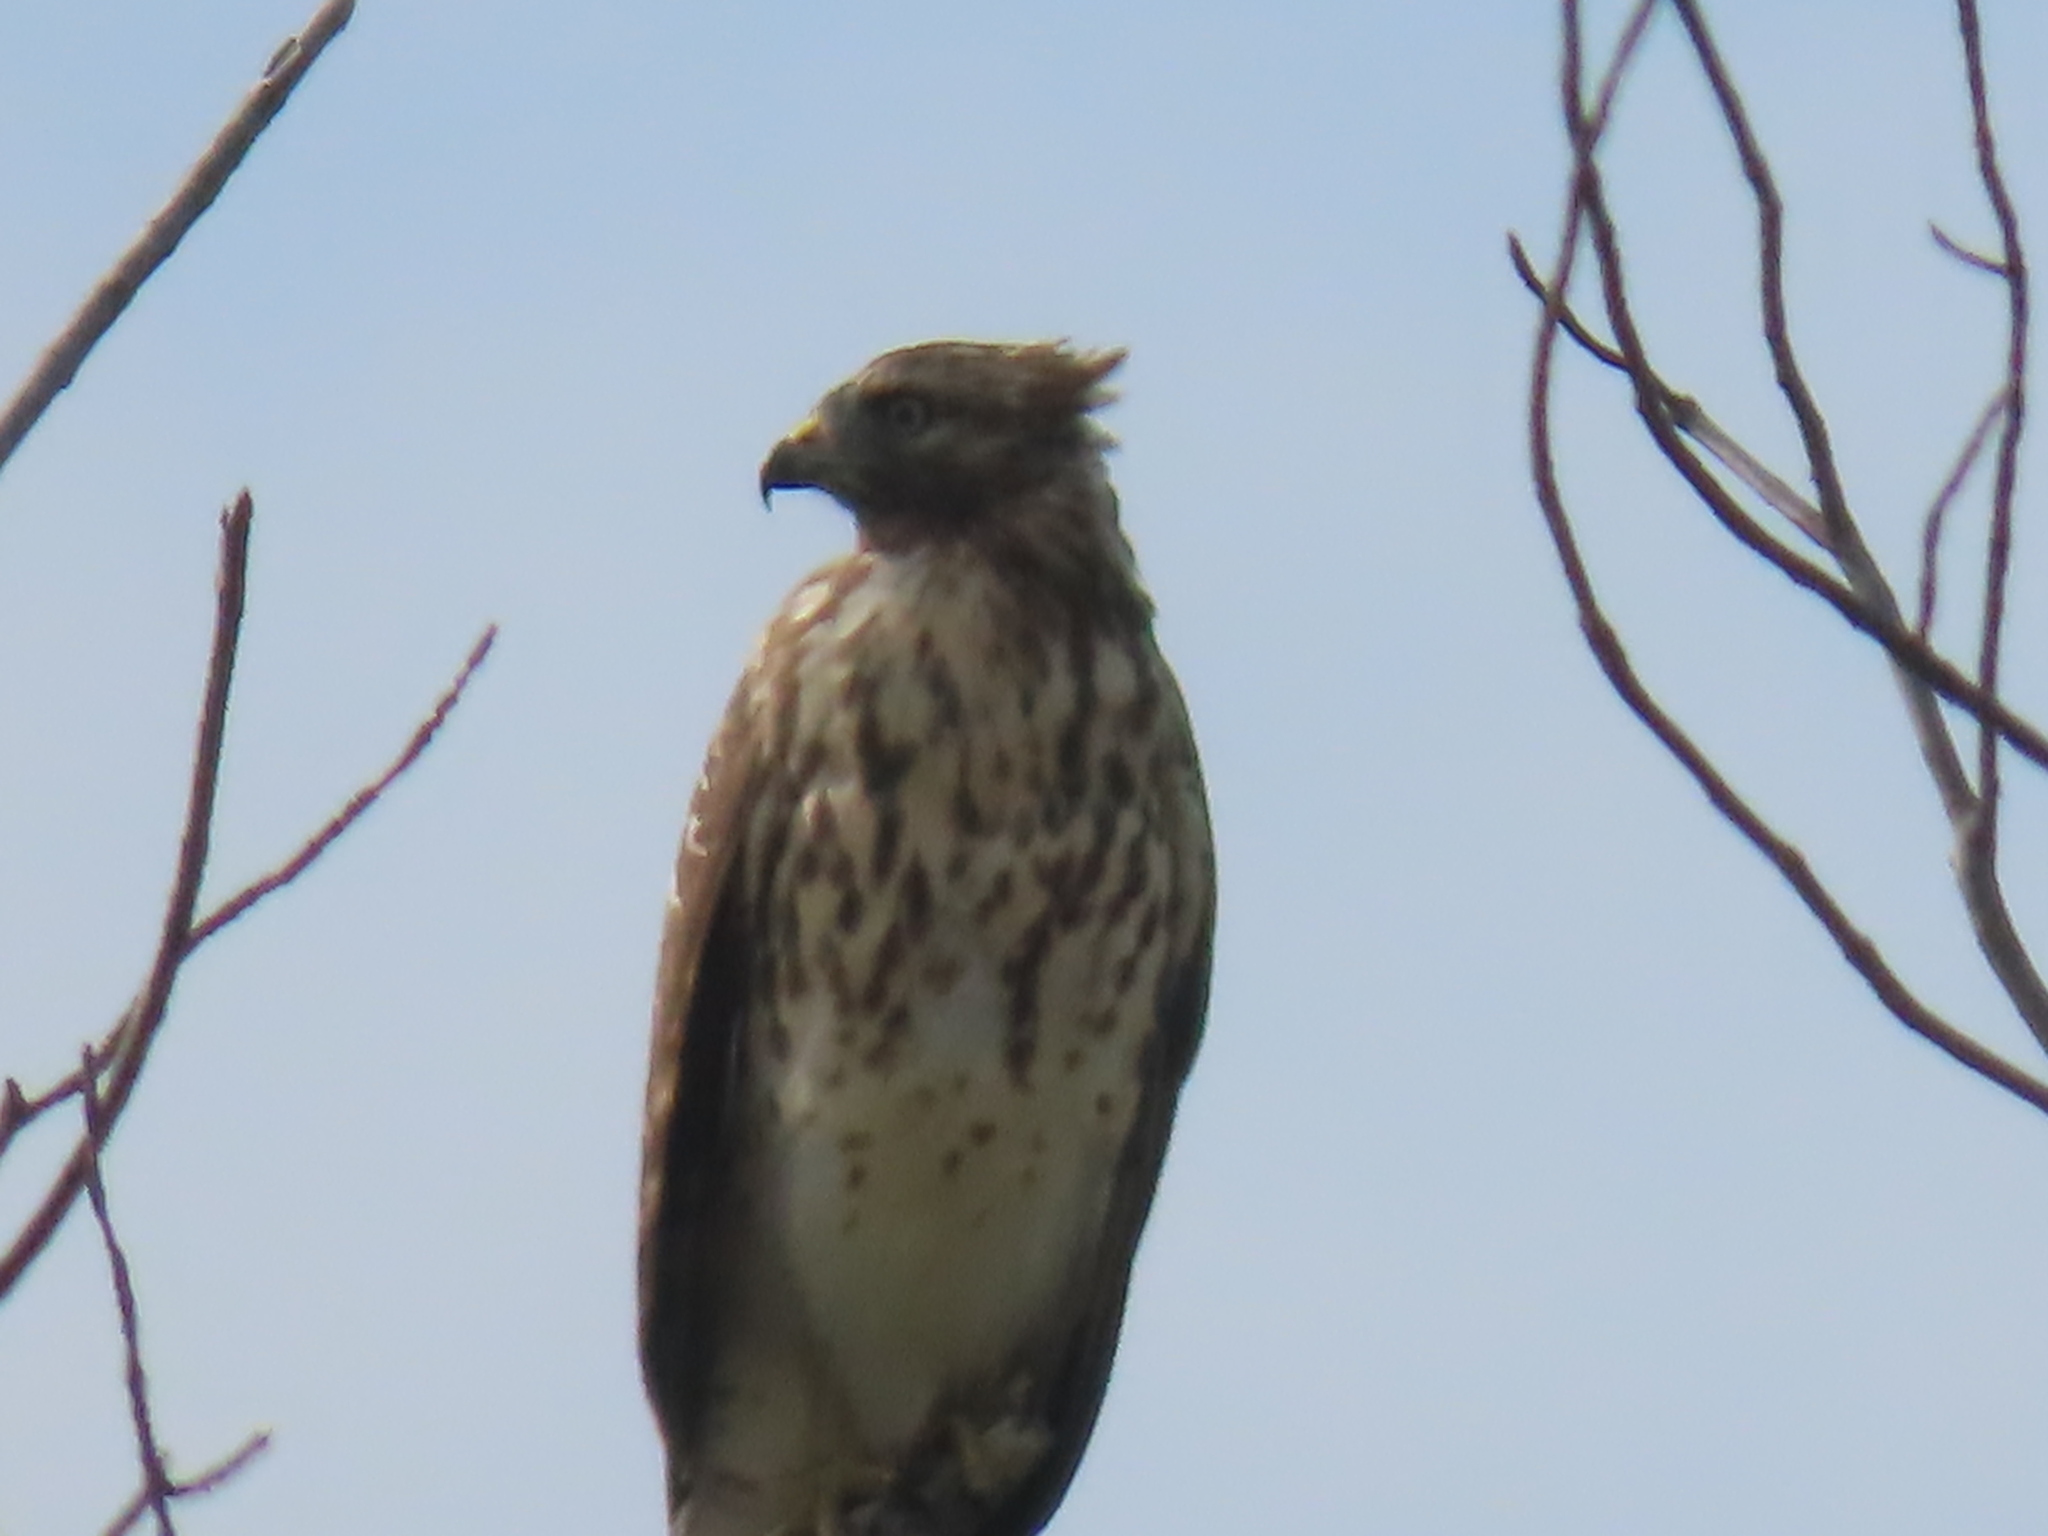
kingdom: Animalia
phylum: Chordata
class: Aves
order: Accipitriformes
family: Accipitridae
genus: Buteo
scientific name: Buteo lineatus
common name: Red-shouldered hawk
